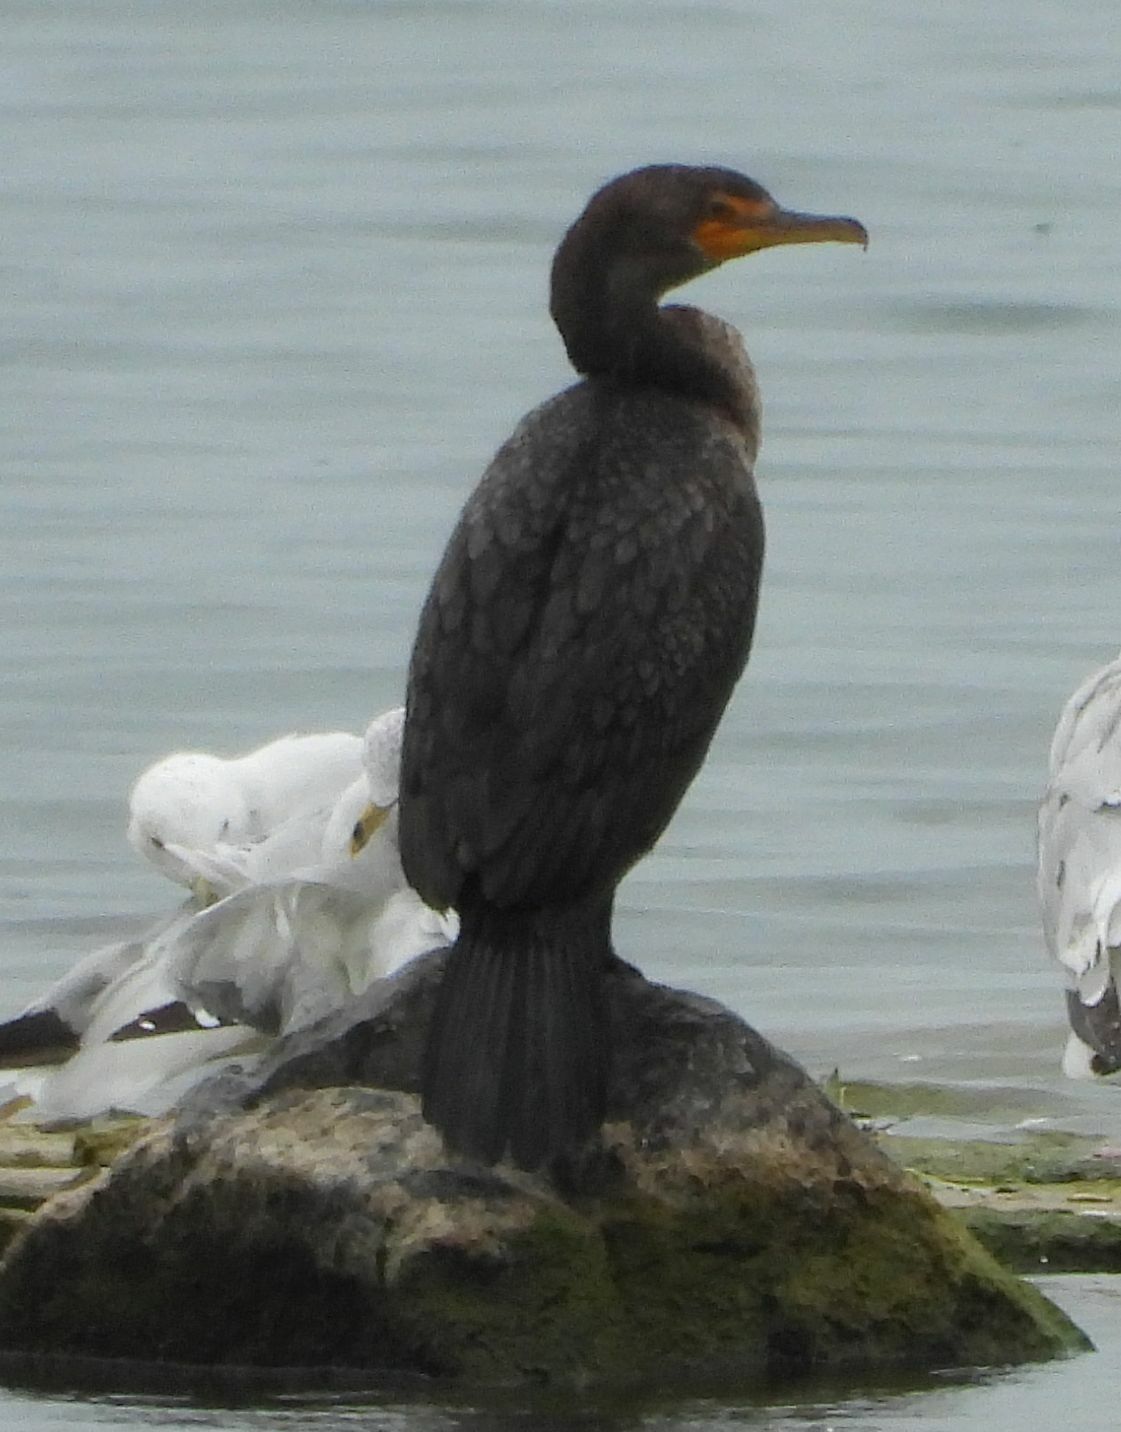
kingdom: Animalia
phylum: Chordata
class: Aves
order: Suliformes
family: Phalacrocoracidae
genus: Phalacrocorax
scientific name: Phalacrocorax auritus
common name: Double-crested cormorant
